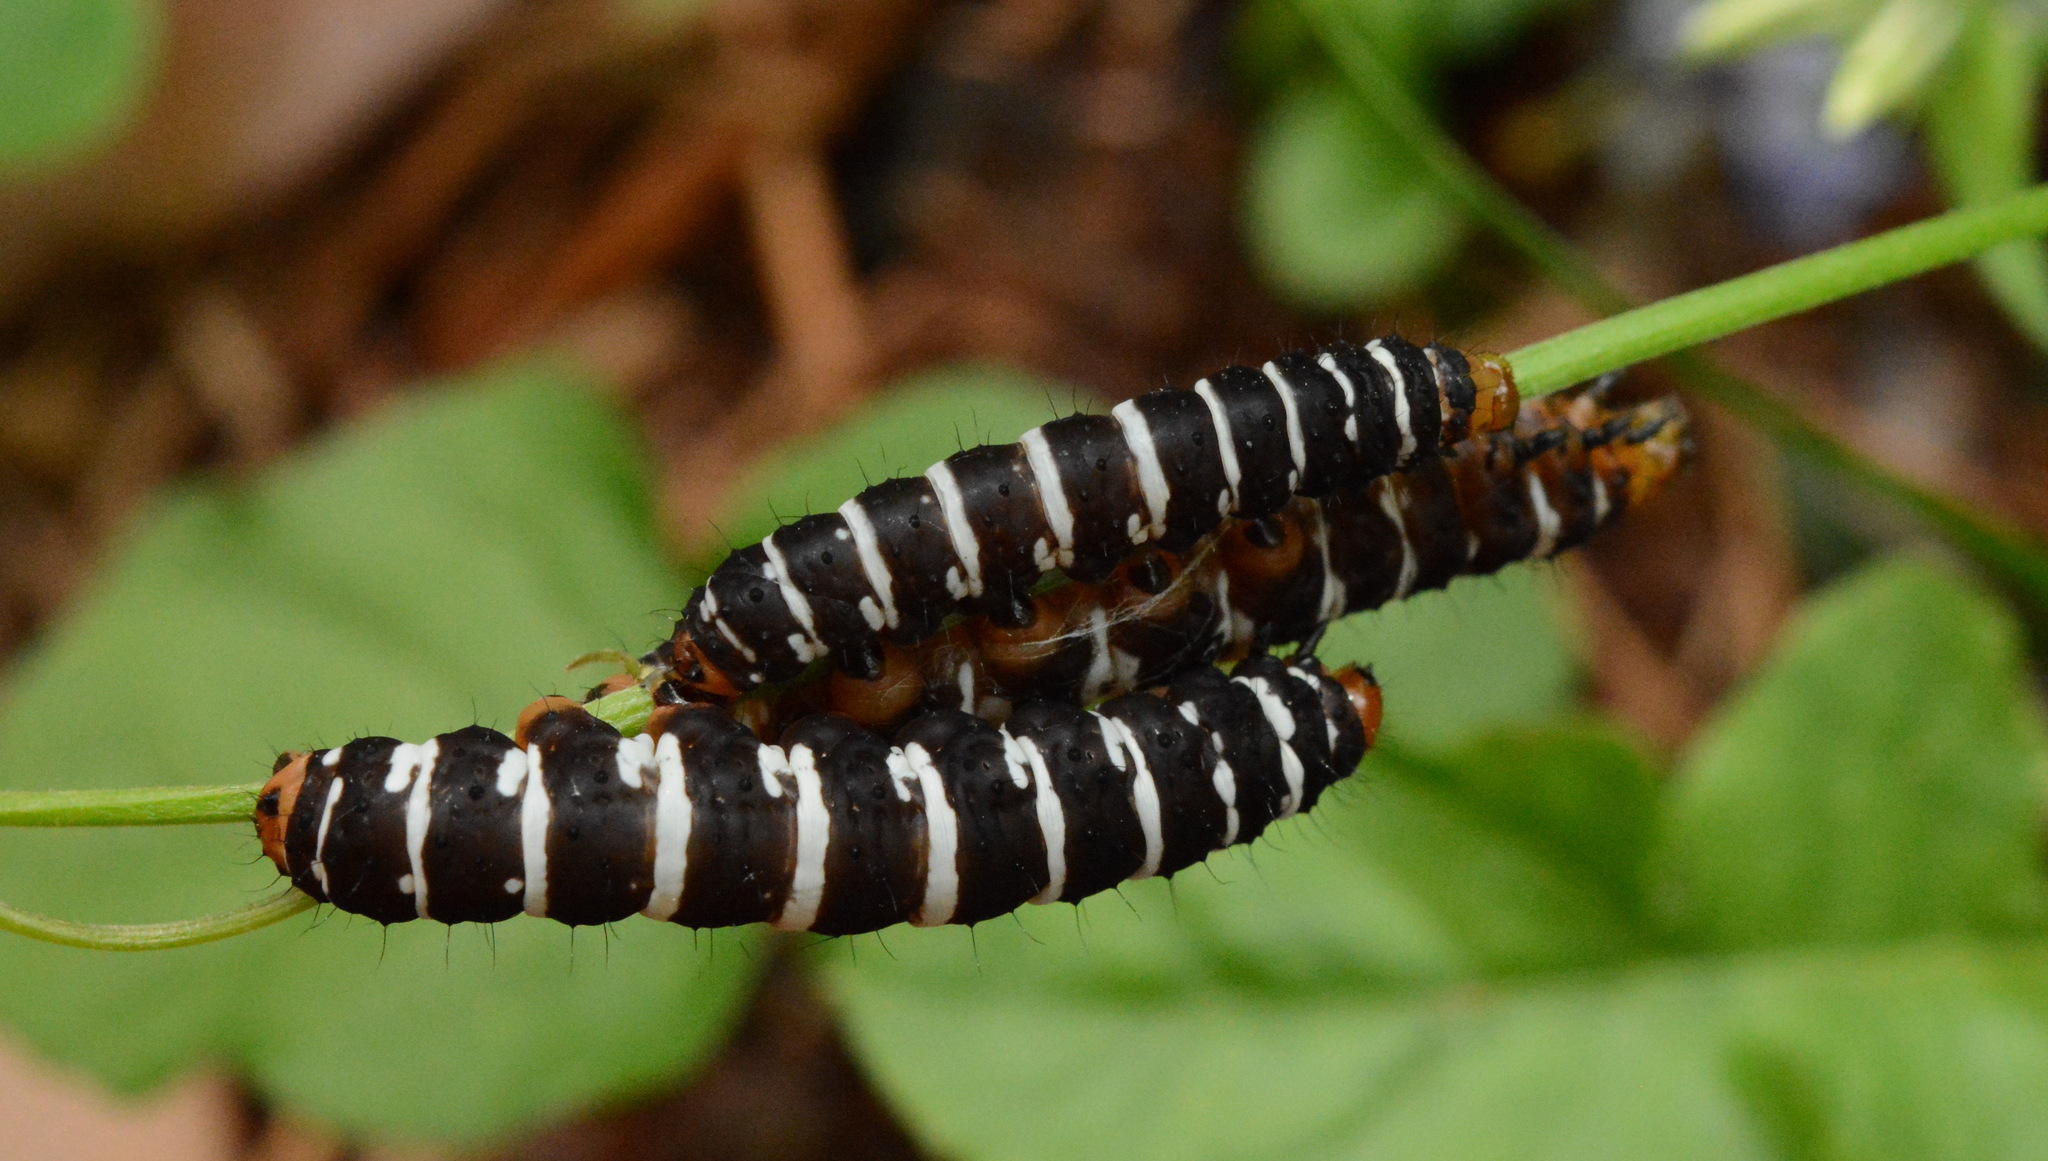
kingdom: Animalia
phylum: Arthropoda
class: Insecta
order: Lepidoptera
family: Noctuidae
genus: Xanthopastis
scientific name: Xanthopastis regnatrix
